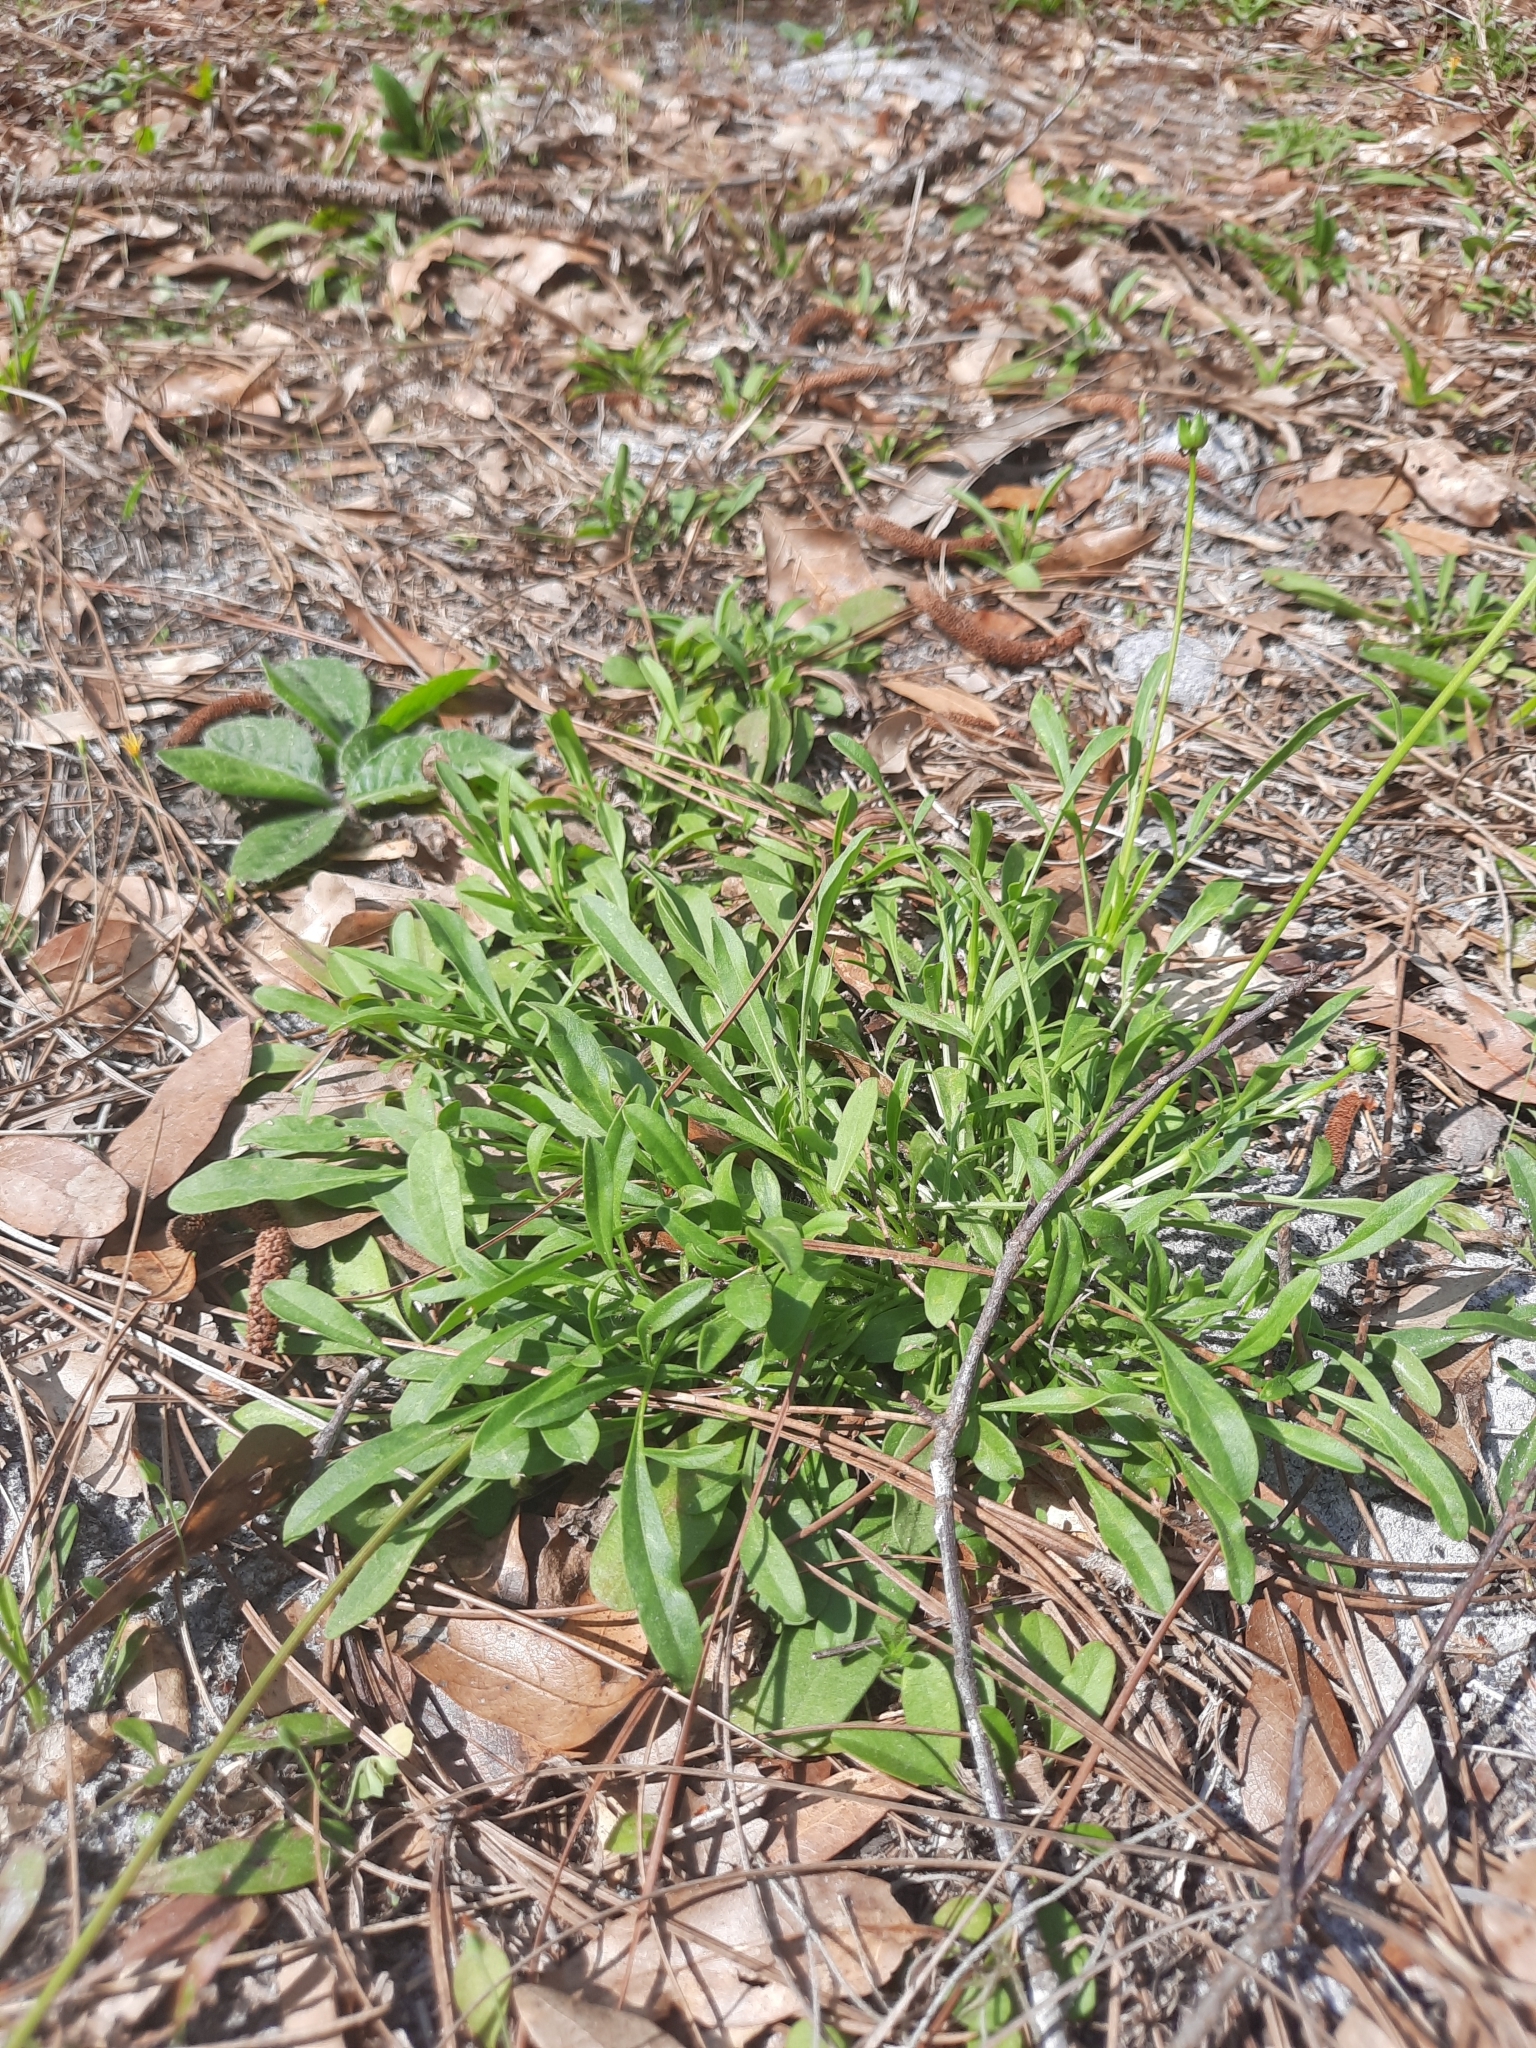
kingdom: Plantae
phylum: Tracheophyta
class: Magnoliopsida
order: Asterales
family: Asteraceae
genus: Coreopsis
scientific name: Coreopsis lanceolata
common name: Garden coreopsis
